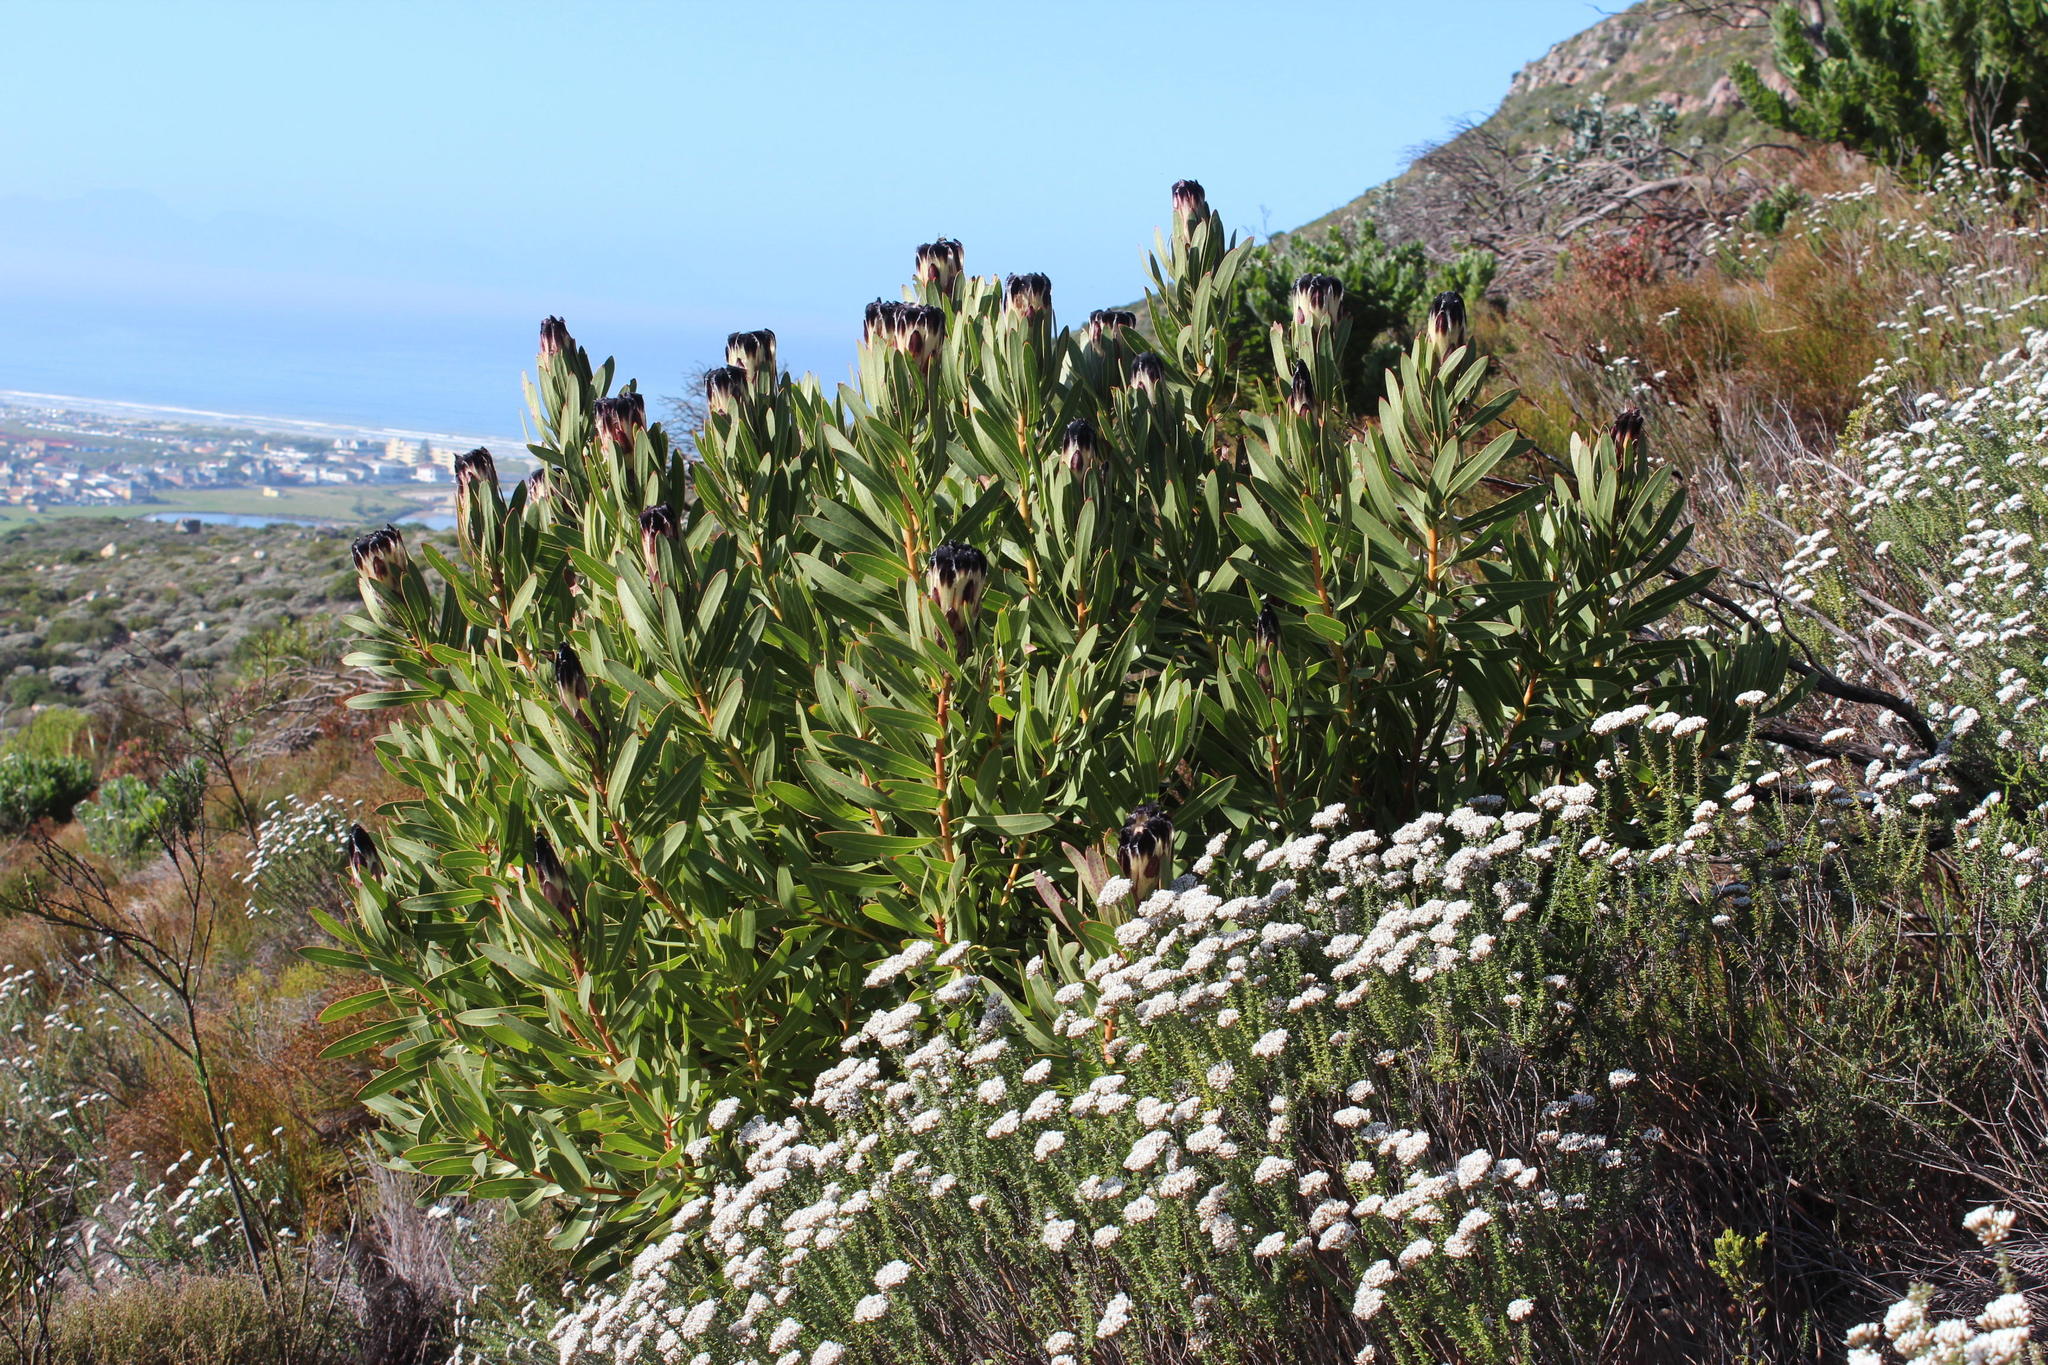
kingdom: Plantae
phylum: Tracheophyta
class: Magnoliopsida
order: Proteales
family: Proteaceae
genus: Protea
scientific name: Protea lepidocarpodendron
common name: Black-bearded protea
